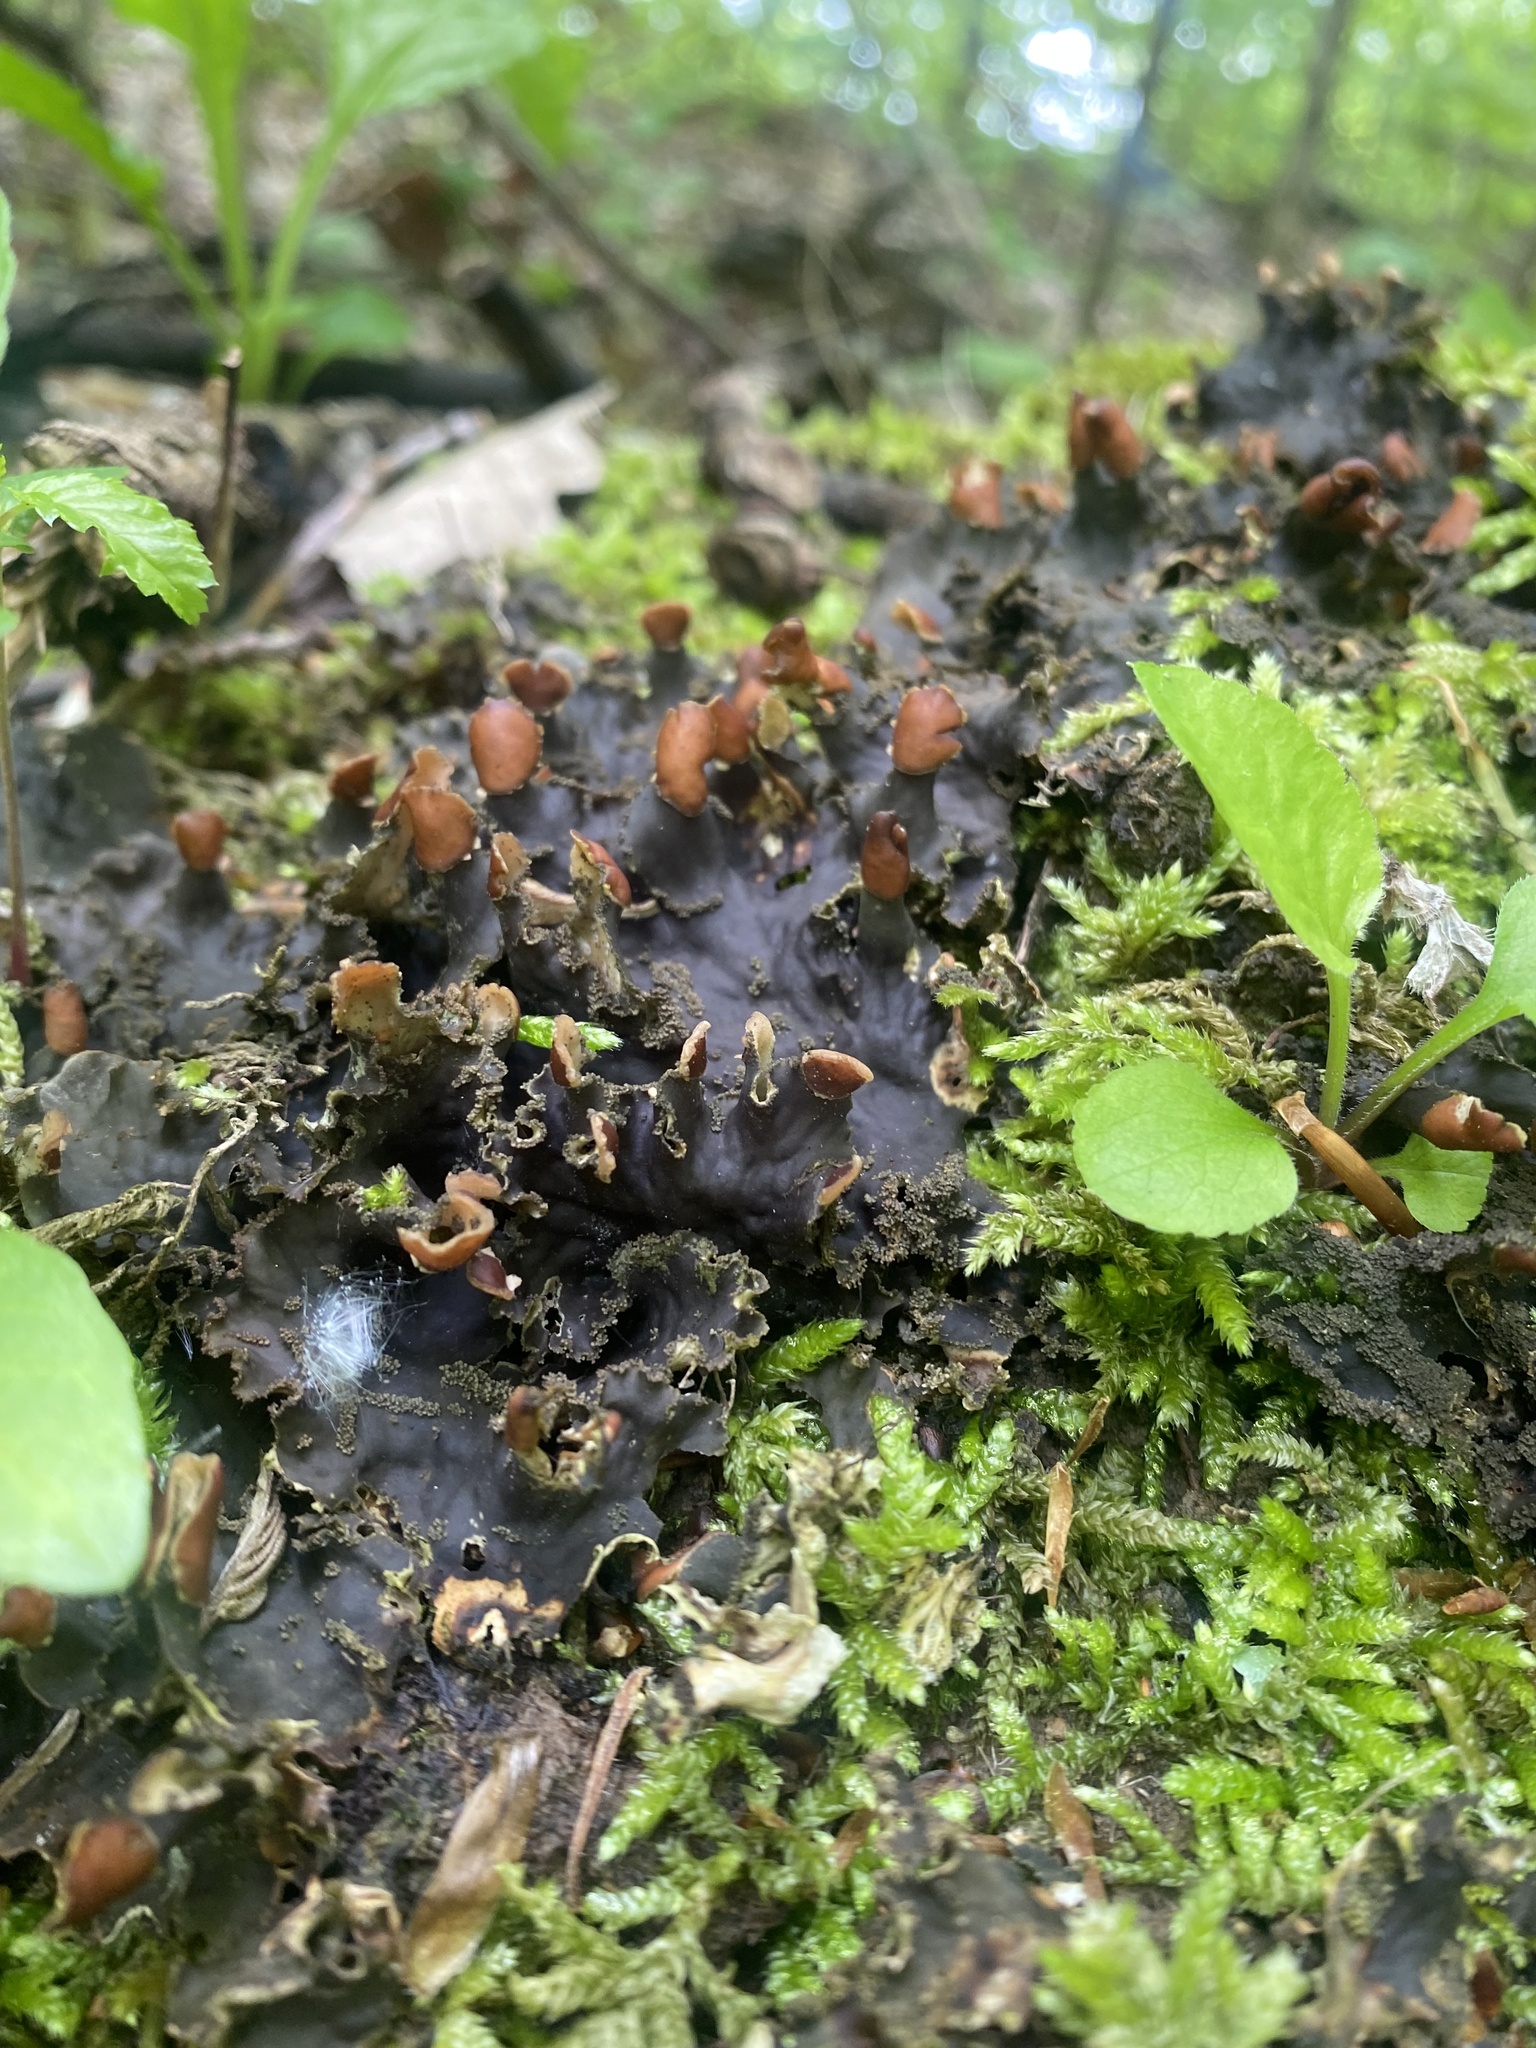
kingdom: Fungi
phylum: Ascomycota
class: Lecanoromycetes
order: Peltigerales
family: Peltigeraceae
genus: Peltigera
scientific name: Peltigera praetextata
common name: Scaly dog-lichen
